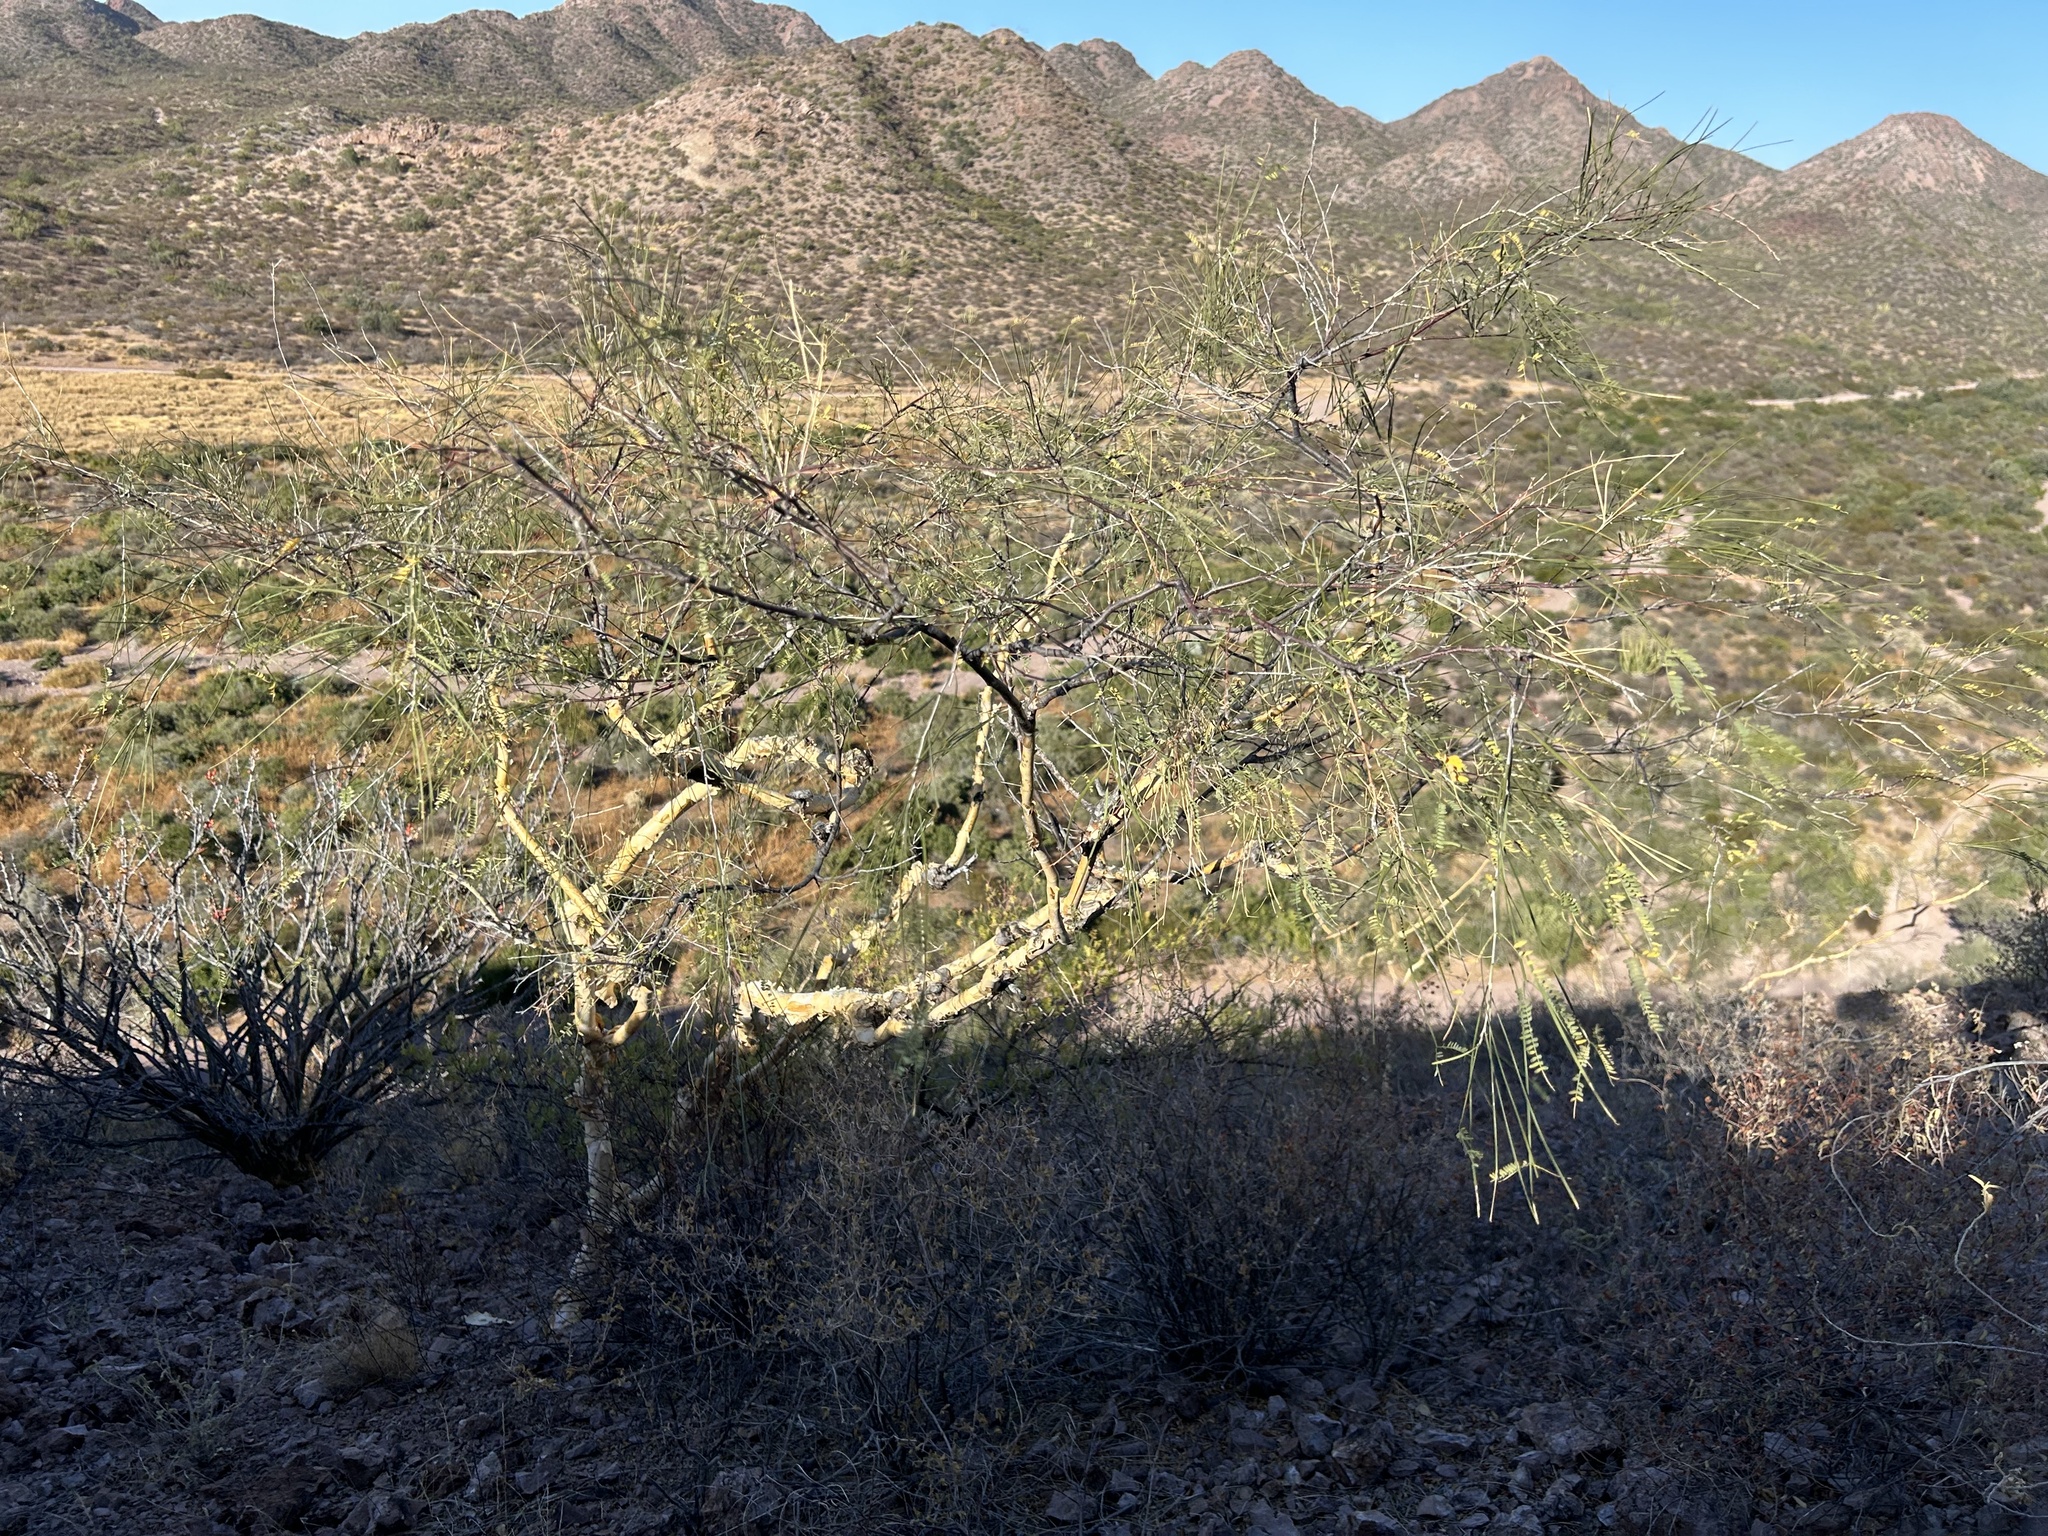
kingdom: Plantae
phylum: Tracheophyta
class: Magnoliopsida
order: Fabales
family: Fabaceae
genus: Mariosousa
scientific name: Mariosousa heterophylla
